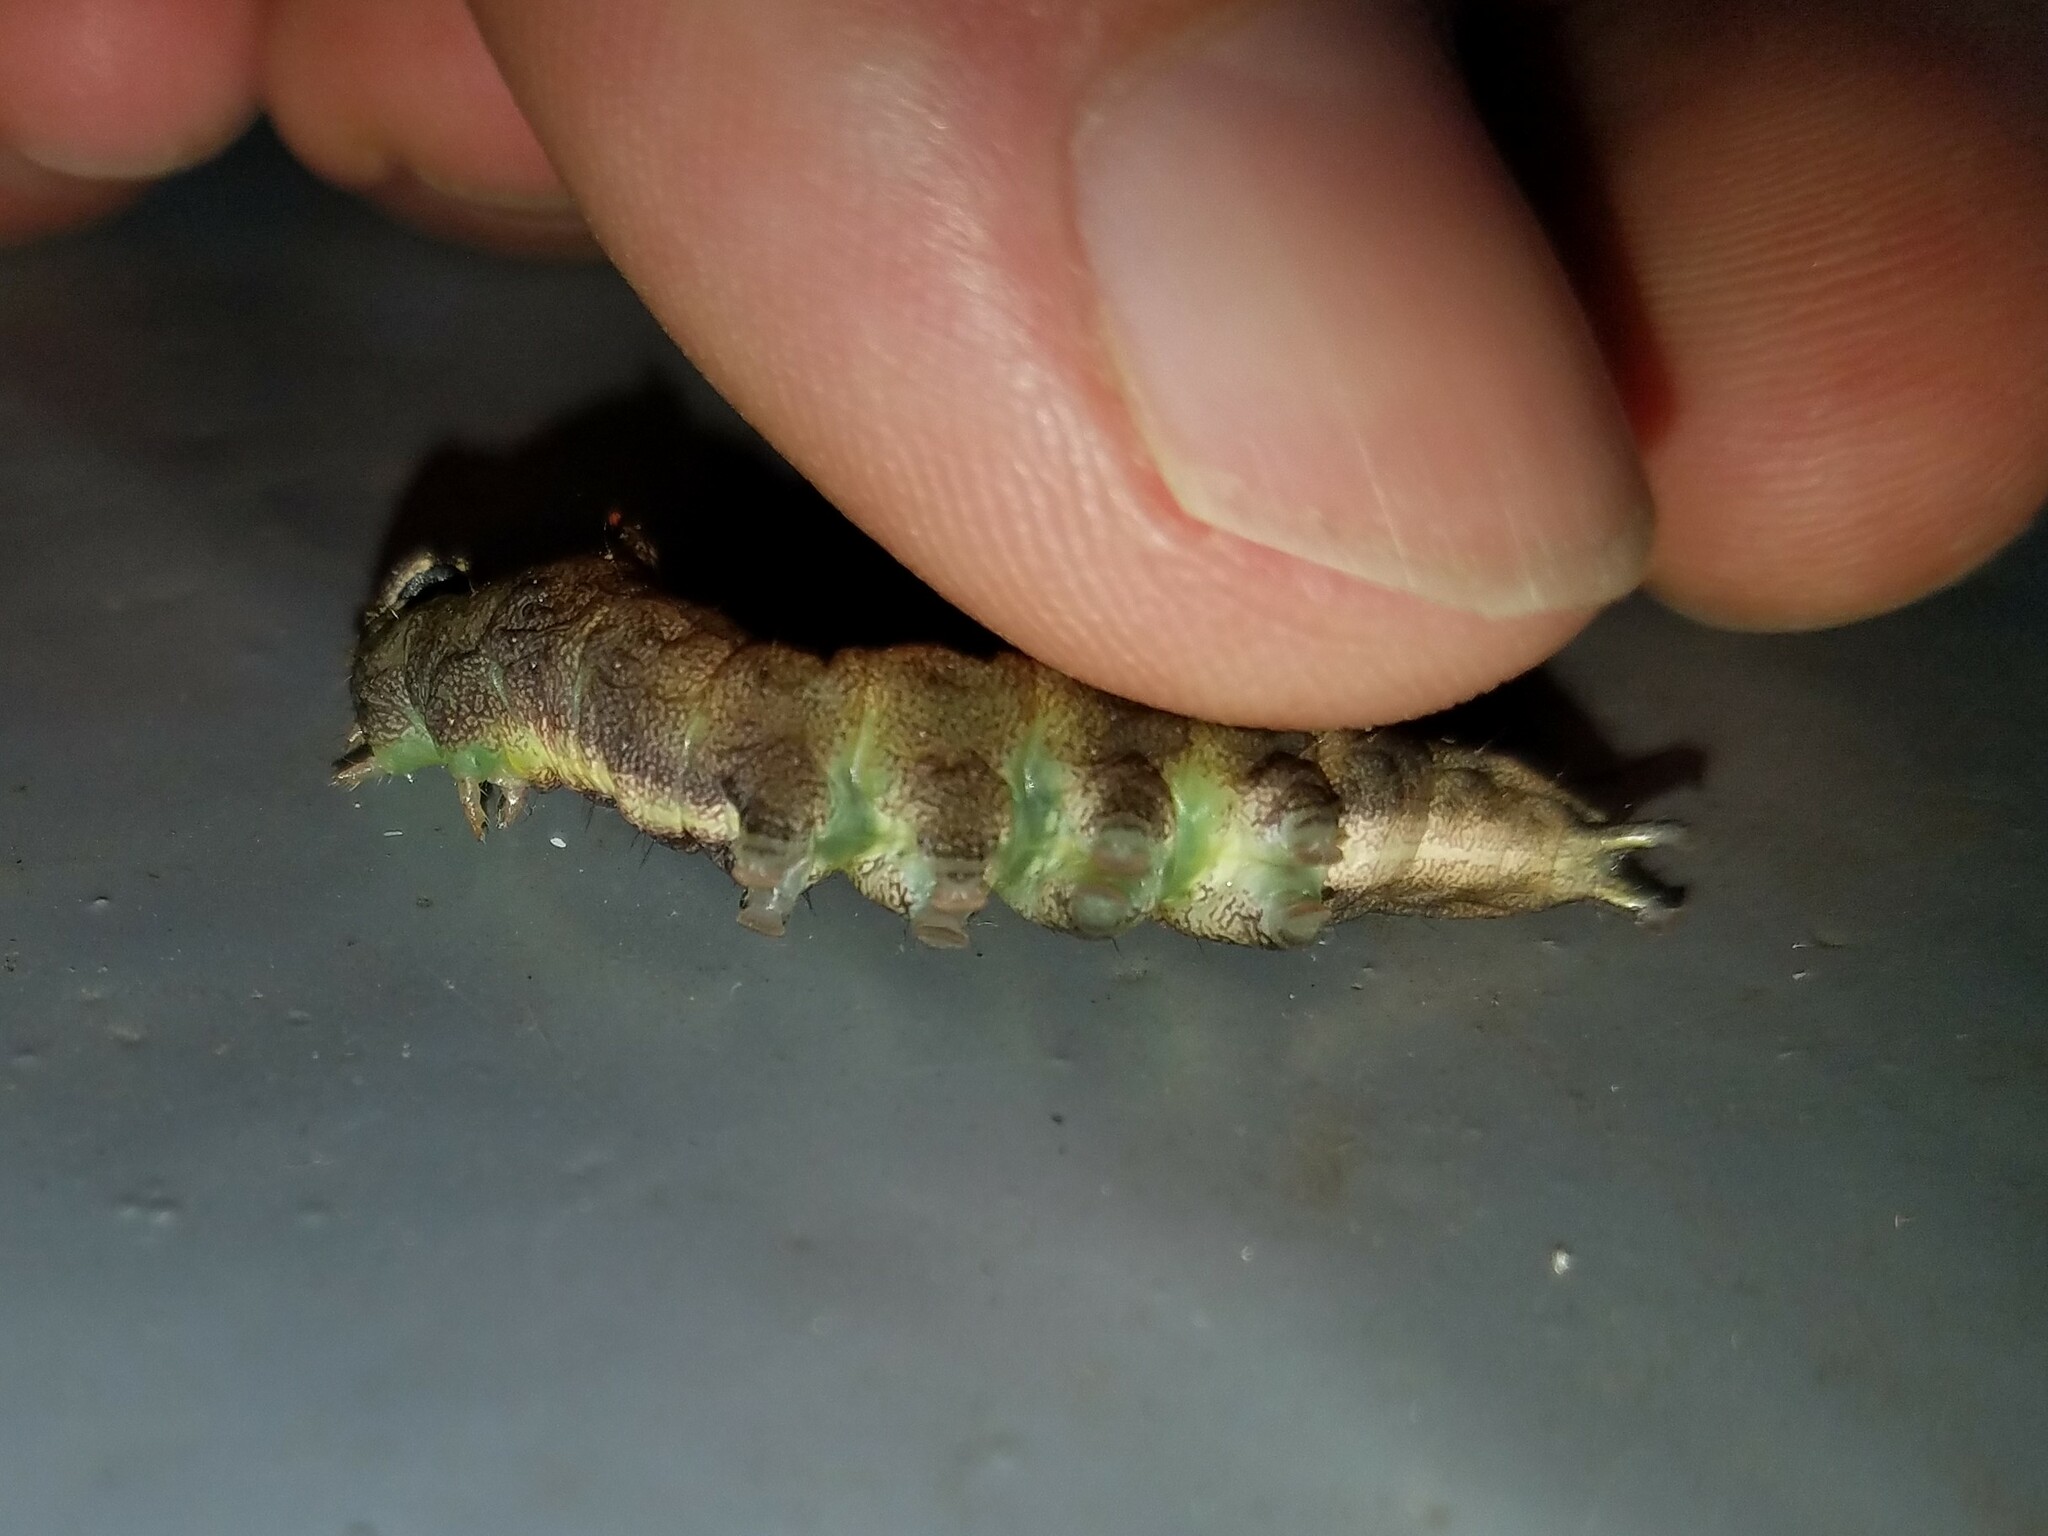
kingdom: Animalia
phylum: Arthropoda
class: Insecta
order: Lepidoptera
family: Notodontidae
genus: Schizura
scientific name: Schizura
